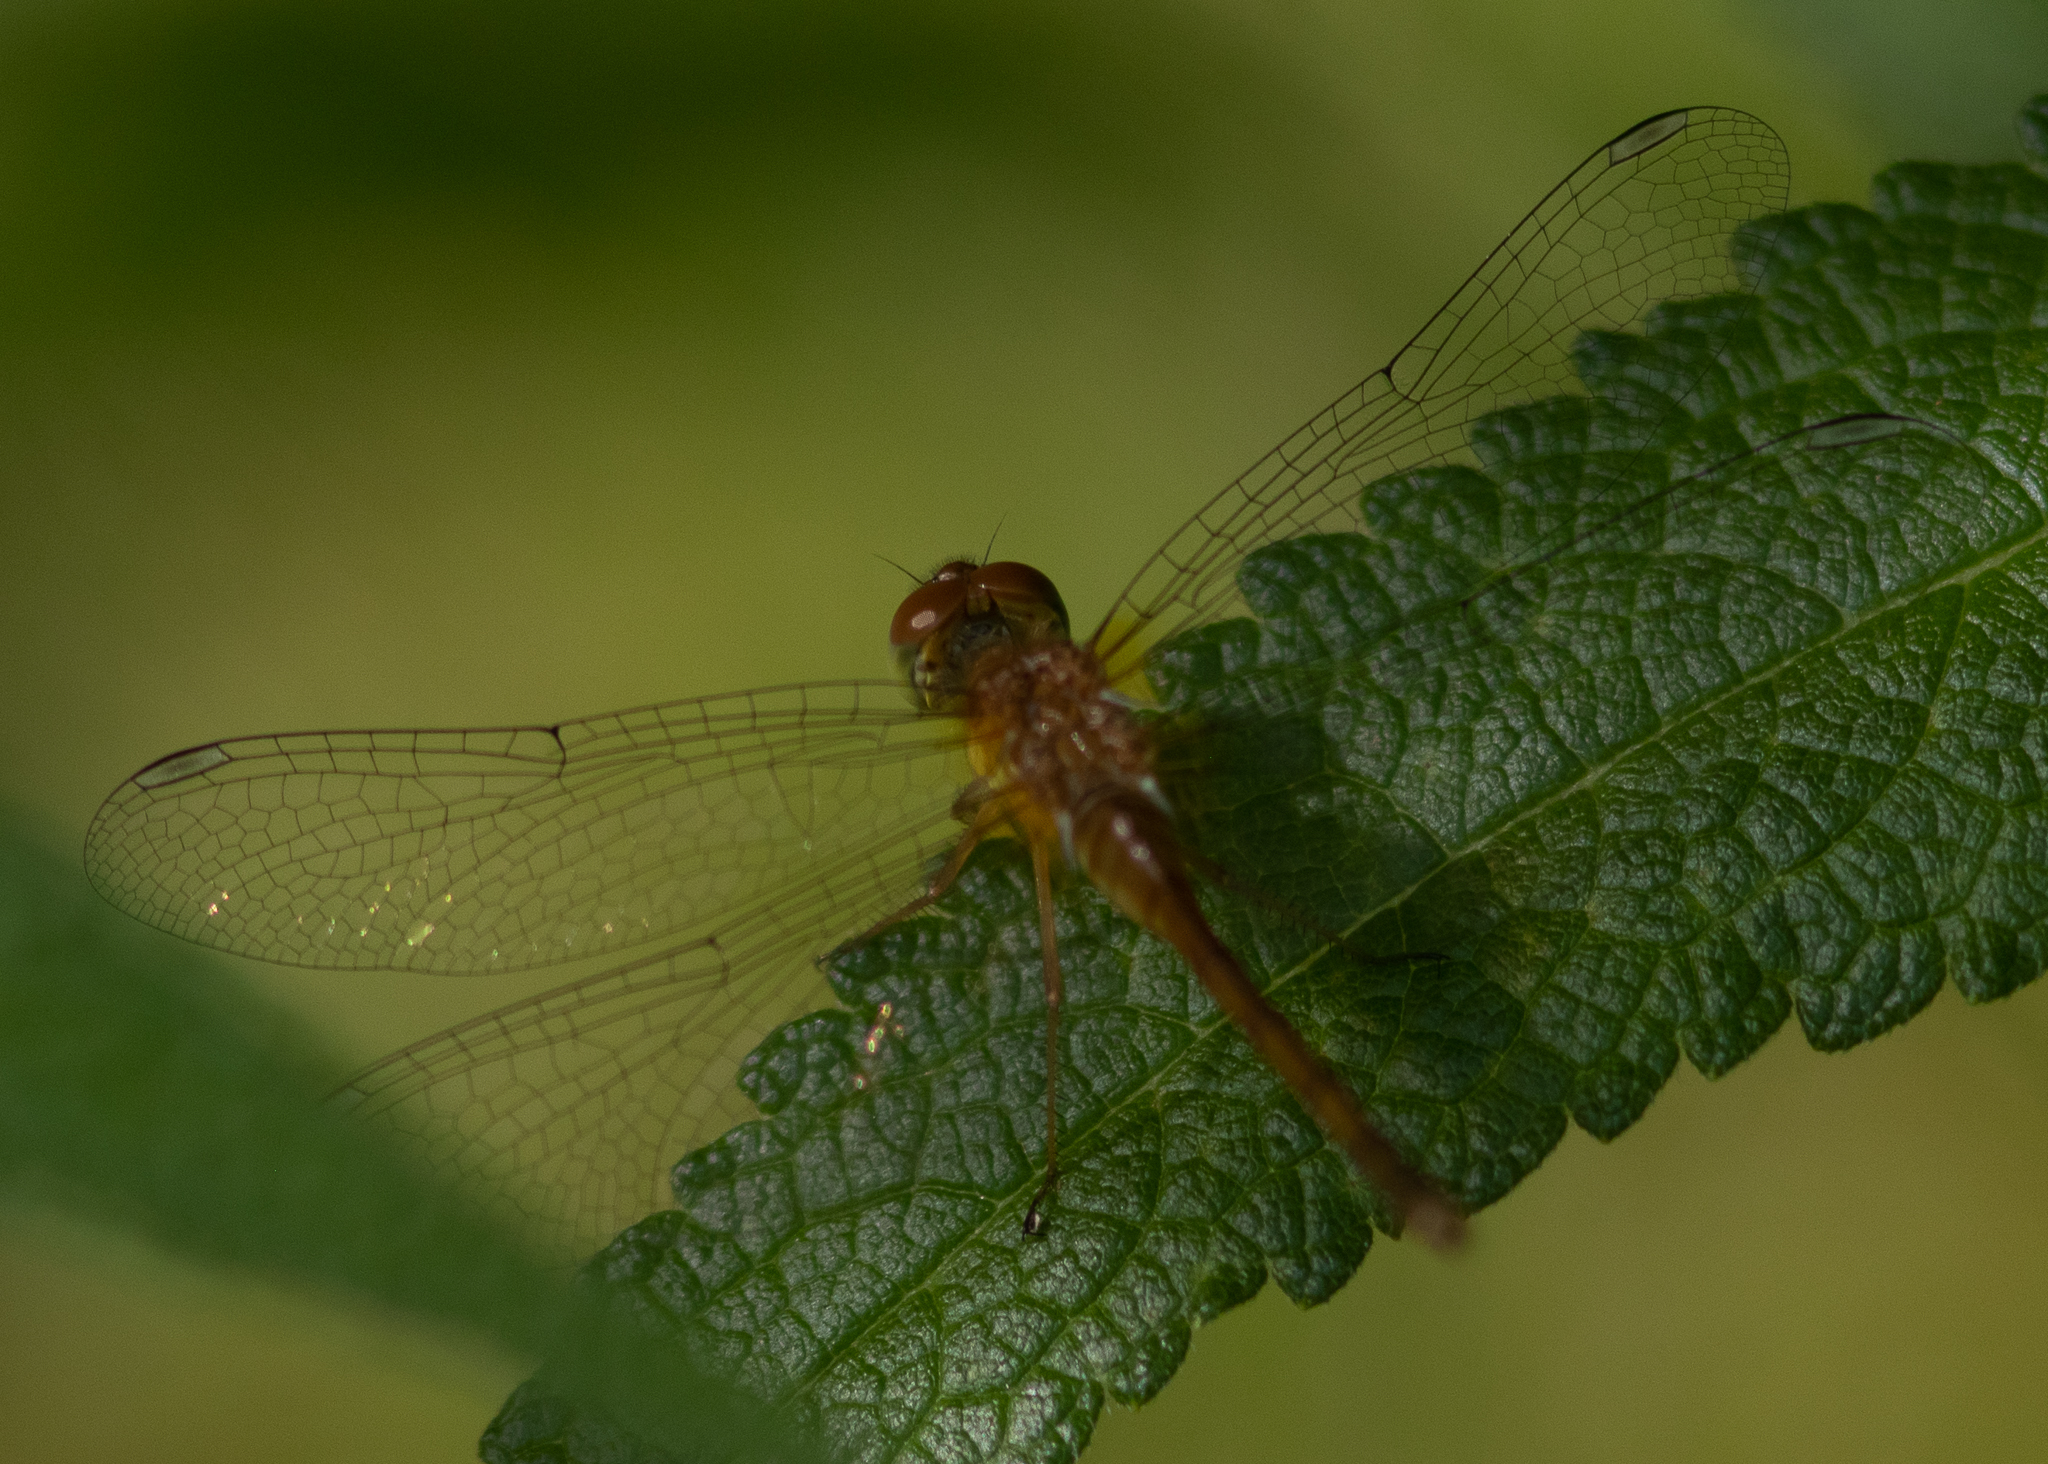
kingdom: Animalia
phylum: Arthropoda
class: Insecta
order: Odonata
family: Libellulidae
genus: Sympetrum
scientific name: Sympetrum vicinum
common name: Autumn meadowhawk
